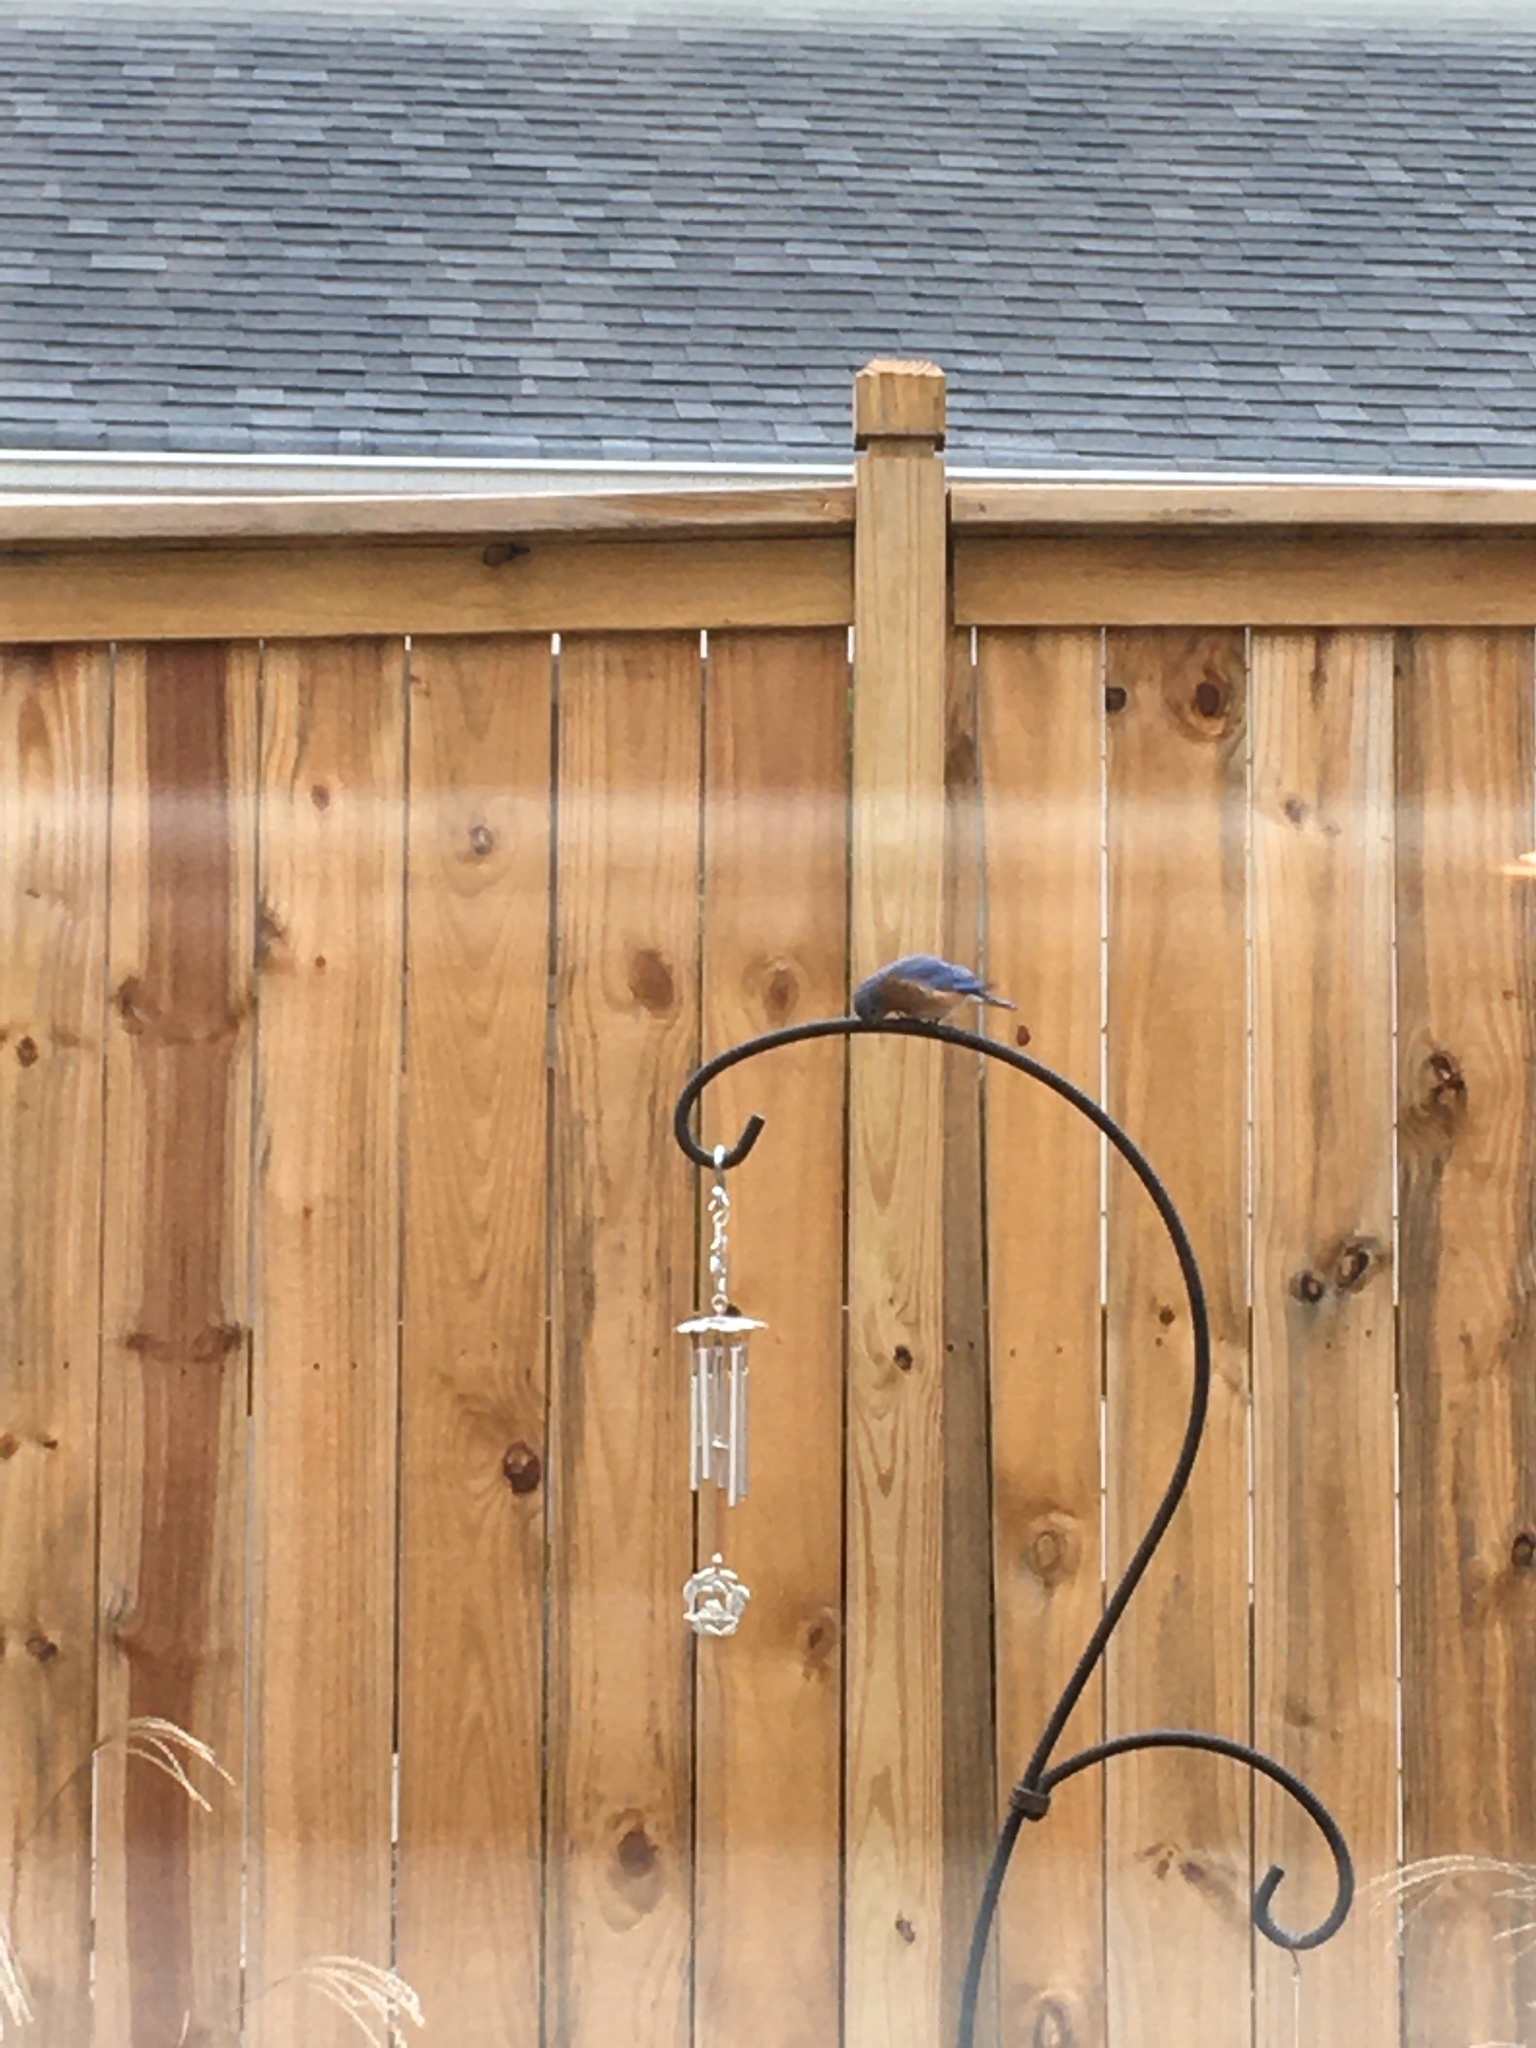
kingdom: Animalia
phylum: Chordata
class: Aves
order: Passeriformes
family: Turdidae
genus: Sialia
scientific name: Sialia sialis
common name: Eastern bluebird
